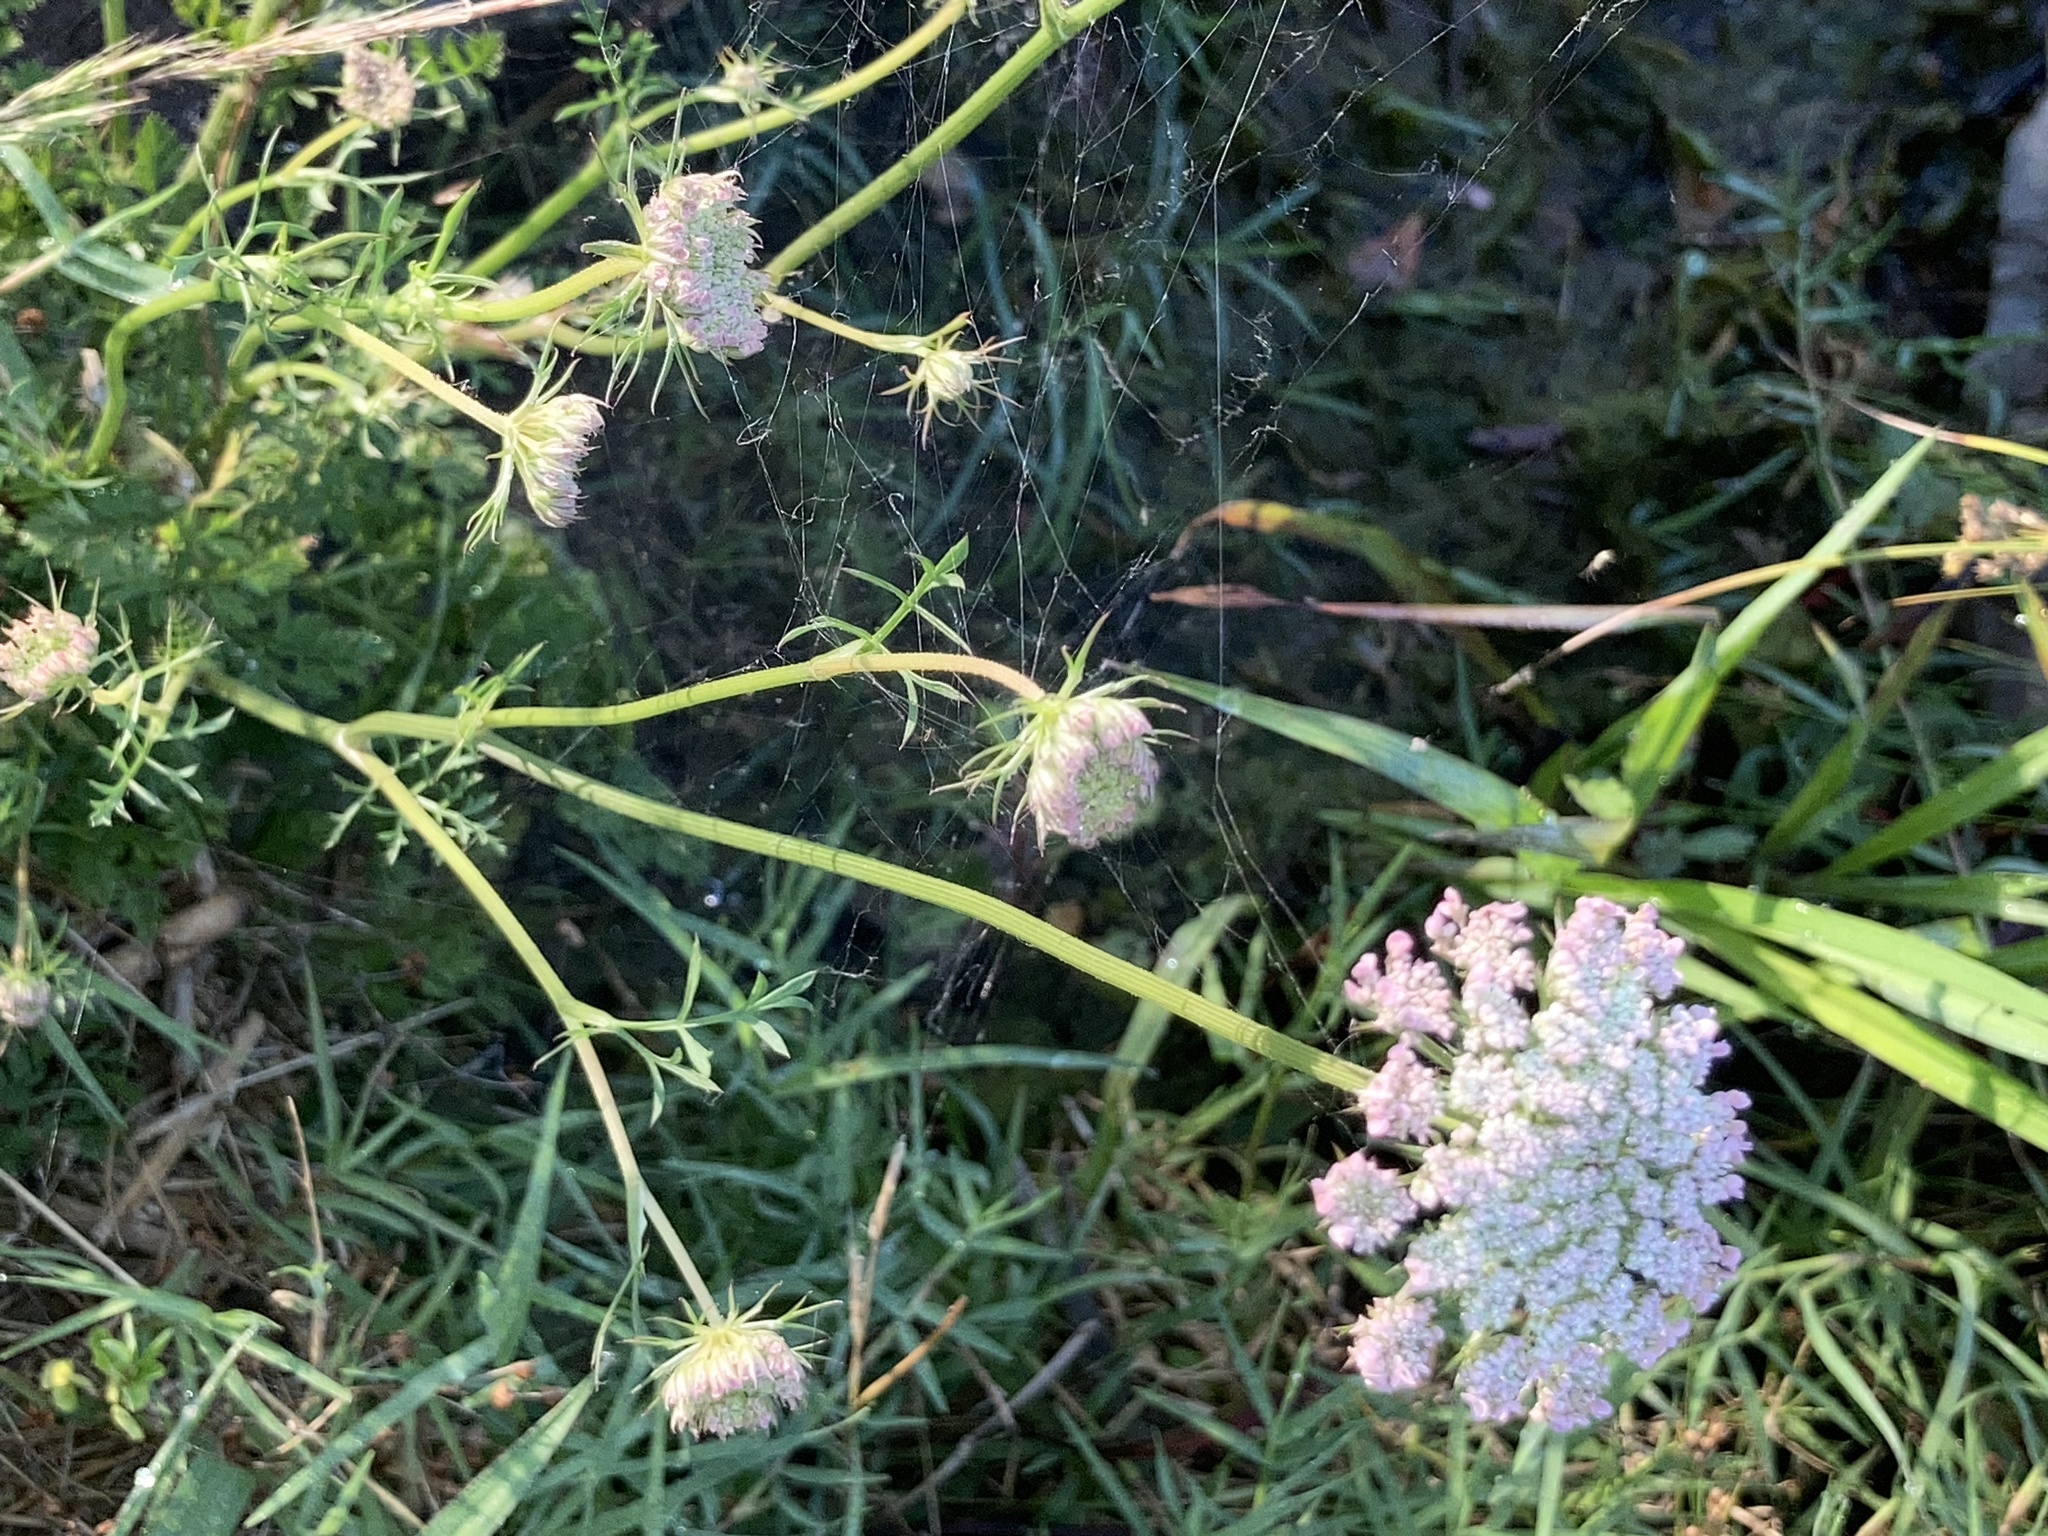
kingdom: Plantae
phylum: Tracheophyta
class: Magnoliopsida
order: Apiales
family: Apiaceae
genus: Daucus
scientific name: Daucus carota
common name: Wild carrot
